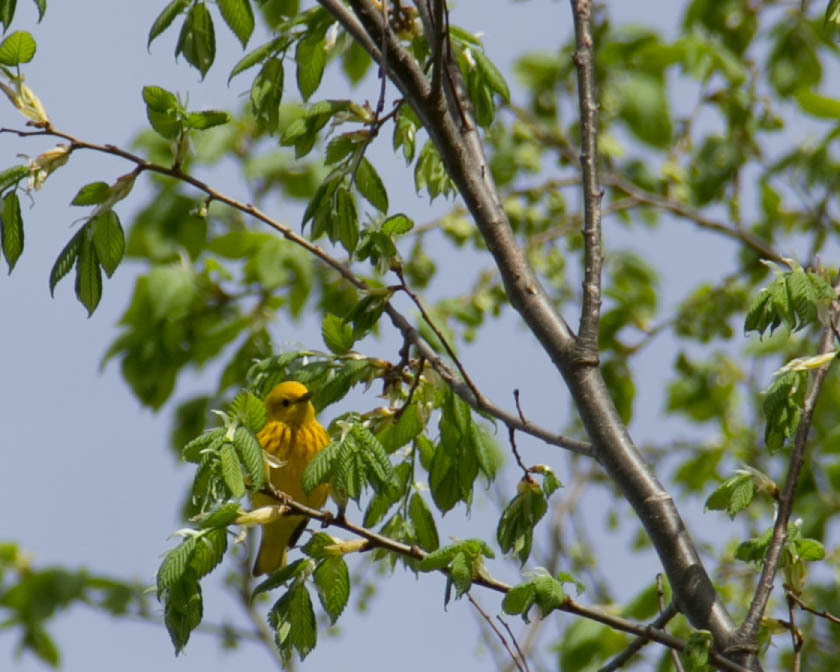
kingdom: Animalia
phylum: Chordata
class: Aves
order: Passeriformes
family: Parulidae
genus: Setophaga
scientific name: Setophaga petechia
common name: Yellow warbler
